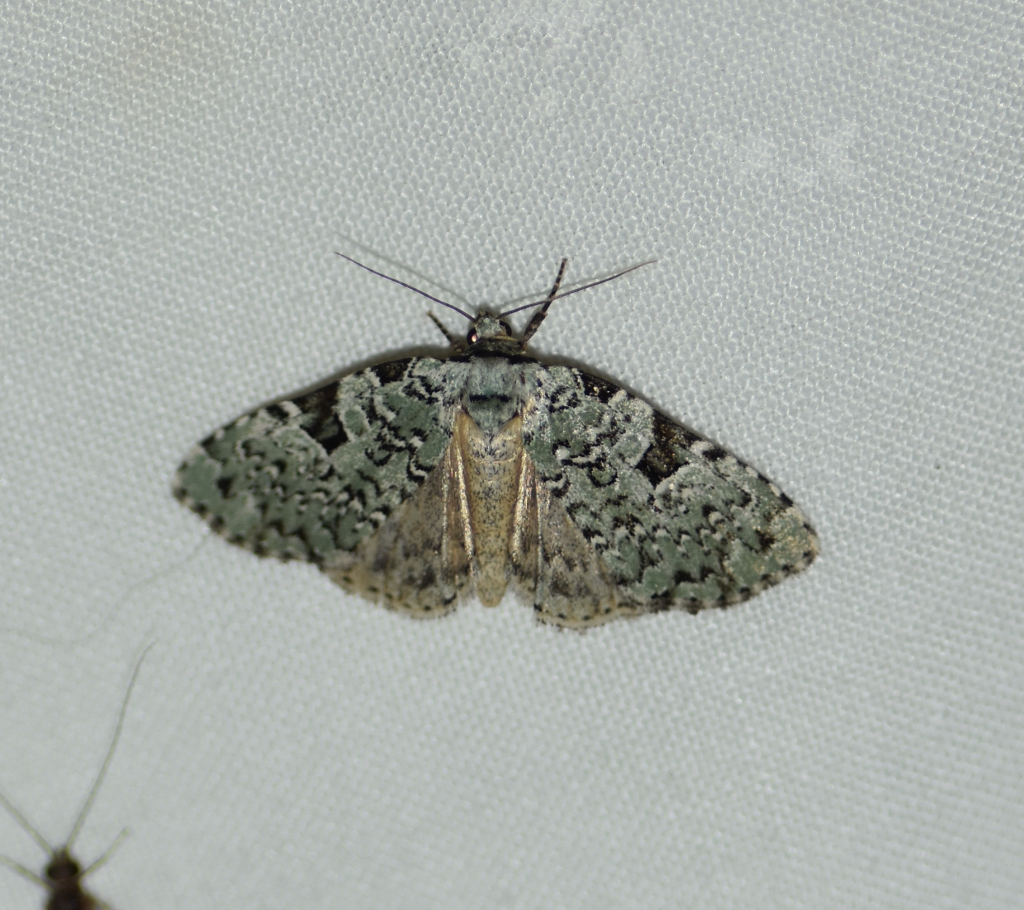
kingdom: Animalia
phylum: Arthropoda
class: Insecta
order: Lepidoptera
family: Noctuidae
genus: Leuconycta
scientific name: Leuconycta diphteroides
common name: Green leuconycta moth
